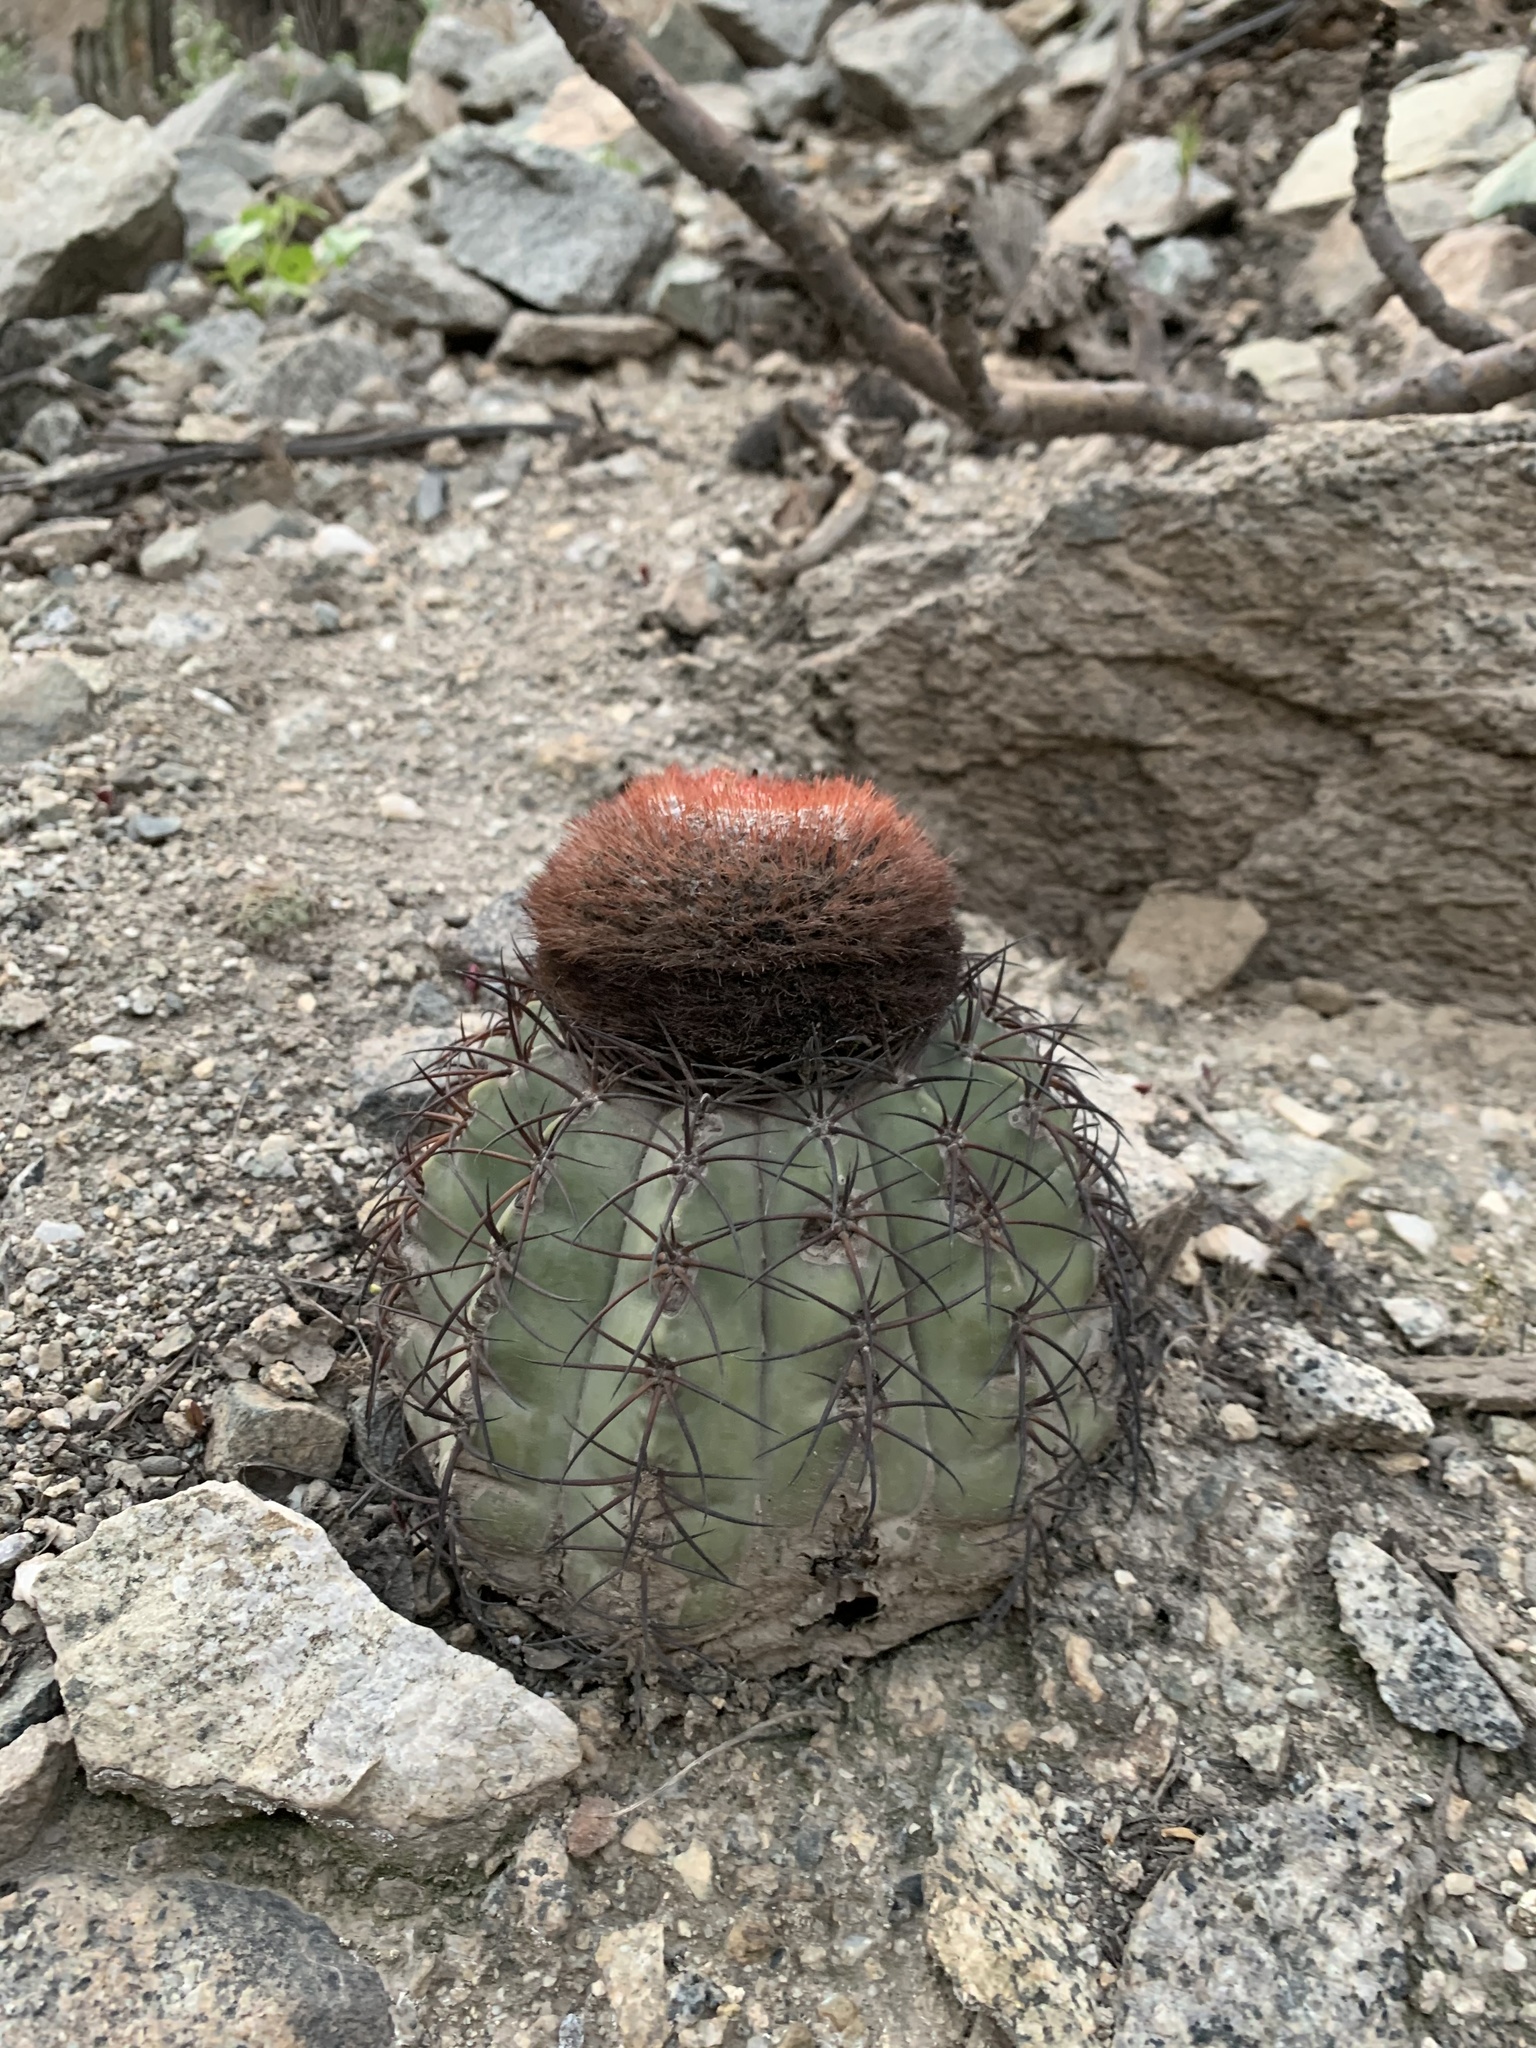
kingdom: Plantae
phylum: Tracheophyta
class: Magnoliopsida
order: Caryophyllales
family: Cactaceae
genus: Melocactus
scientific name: Melocactus peruvianus
